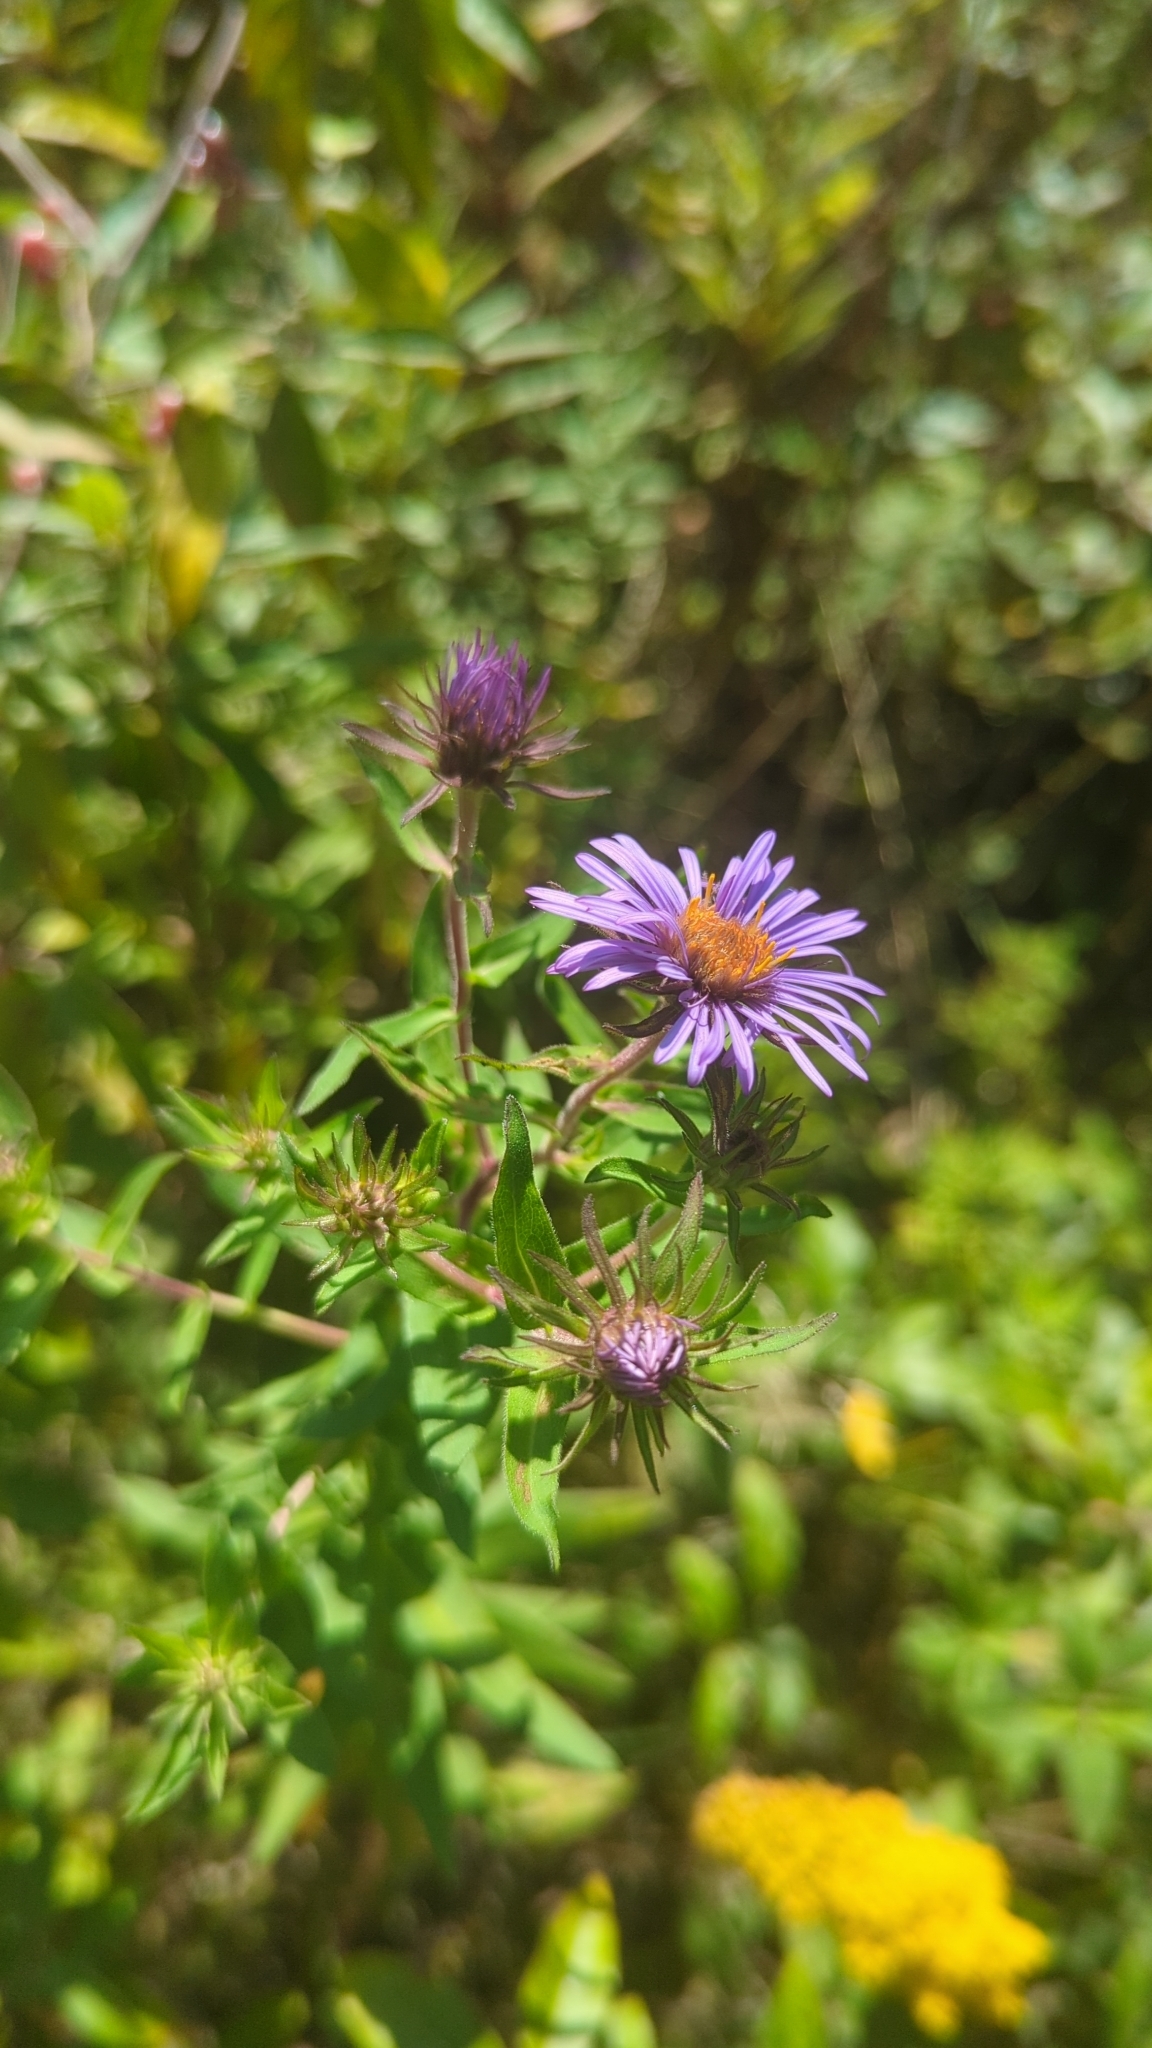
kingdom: Plantae
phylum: Tracheophyta
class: Magnoliopsida
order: Asterales
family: Asteraceae
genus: Symphyotrichum
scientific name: Symphyotrichum novae-angliae
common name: Michaelmas daisy
